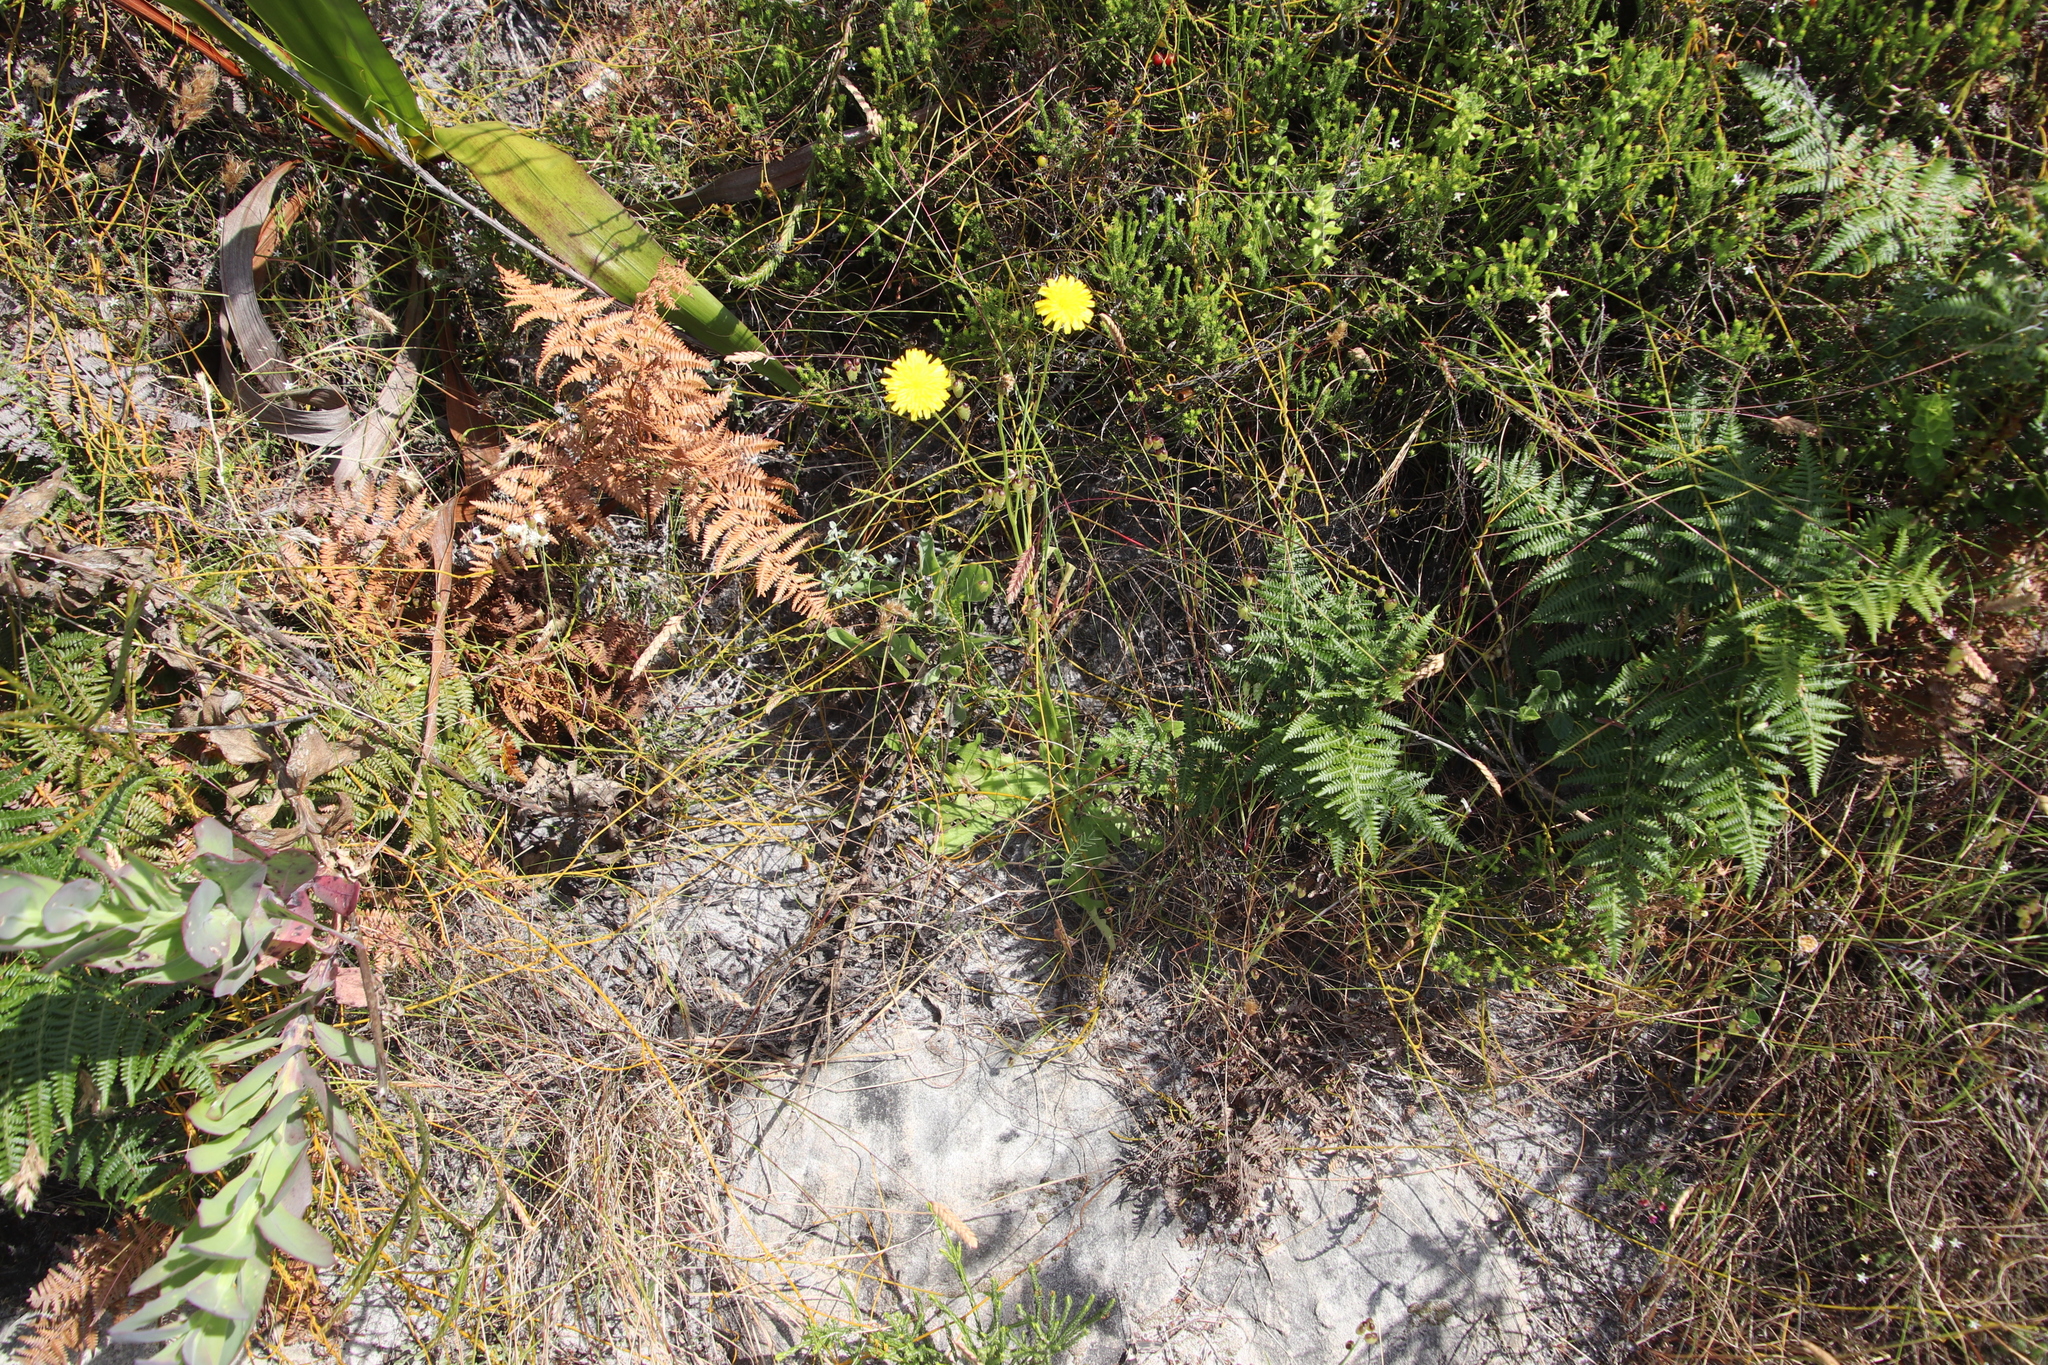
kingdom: Plantae
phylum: Tracheophyta
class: Magnoliopsida
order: Asterales
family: Asteraceae
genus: Hypochaeris
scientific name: Hypochaeris radicata
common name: Flatweed
